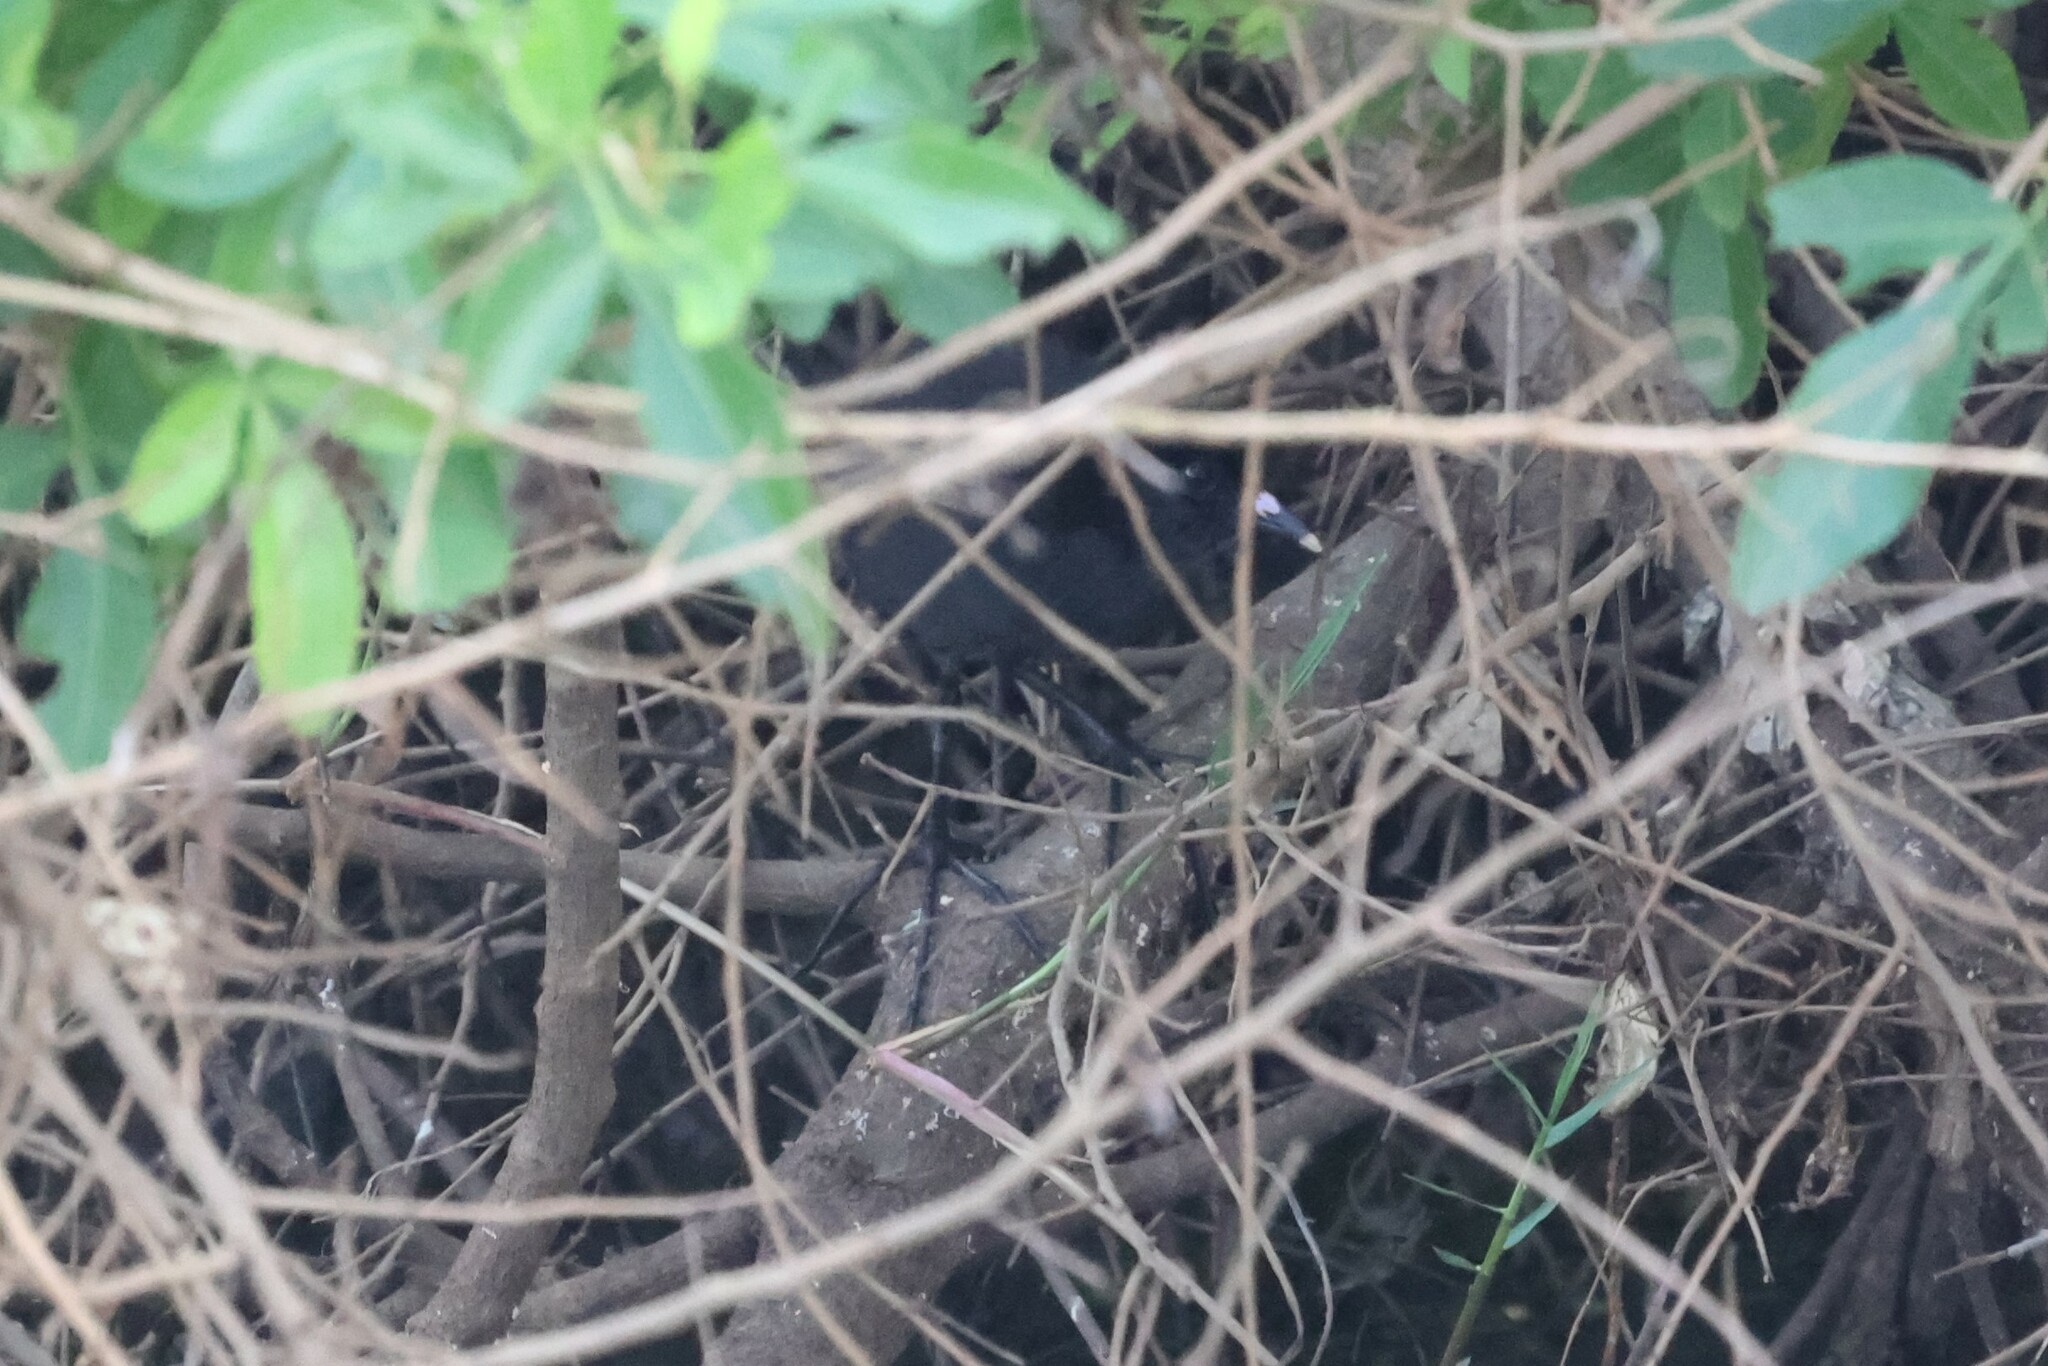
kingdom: Animalia
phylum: Chordata
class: Aves
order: Gruiformes
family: Rallidae
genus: Amaurornis
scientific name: Amaurornis flavirostra
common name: Black crake
